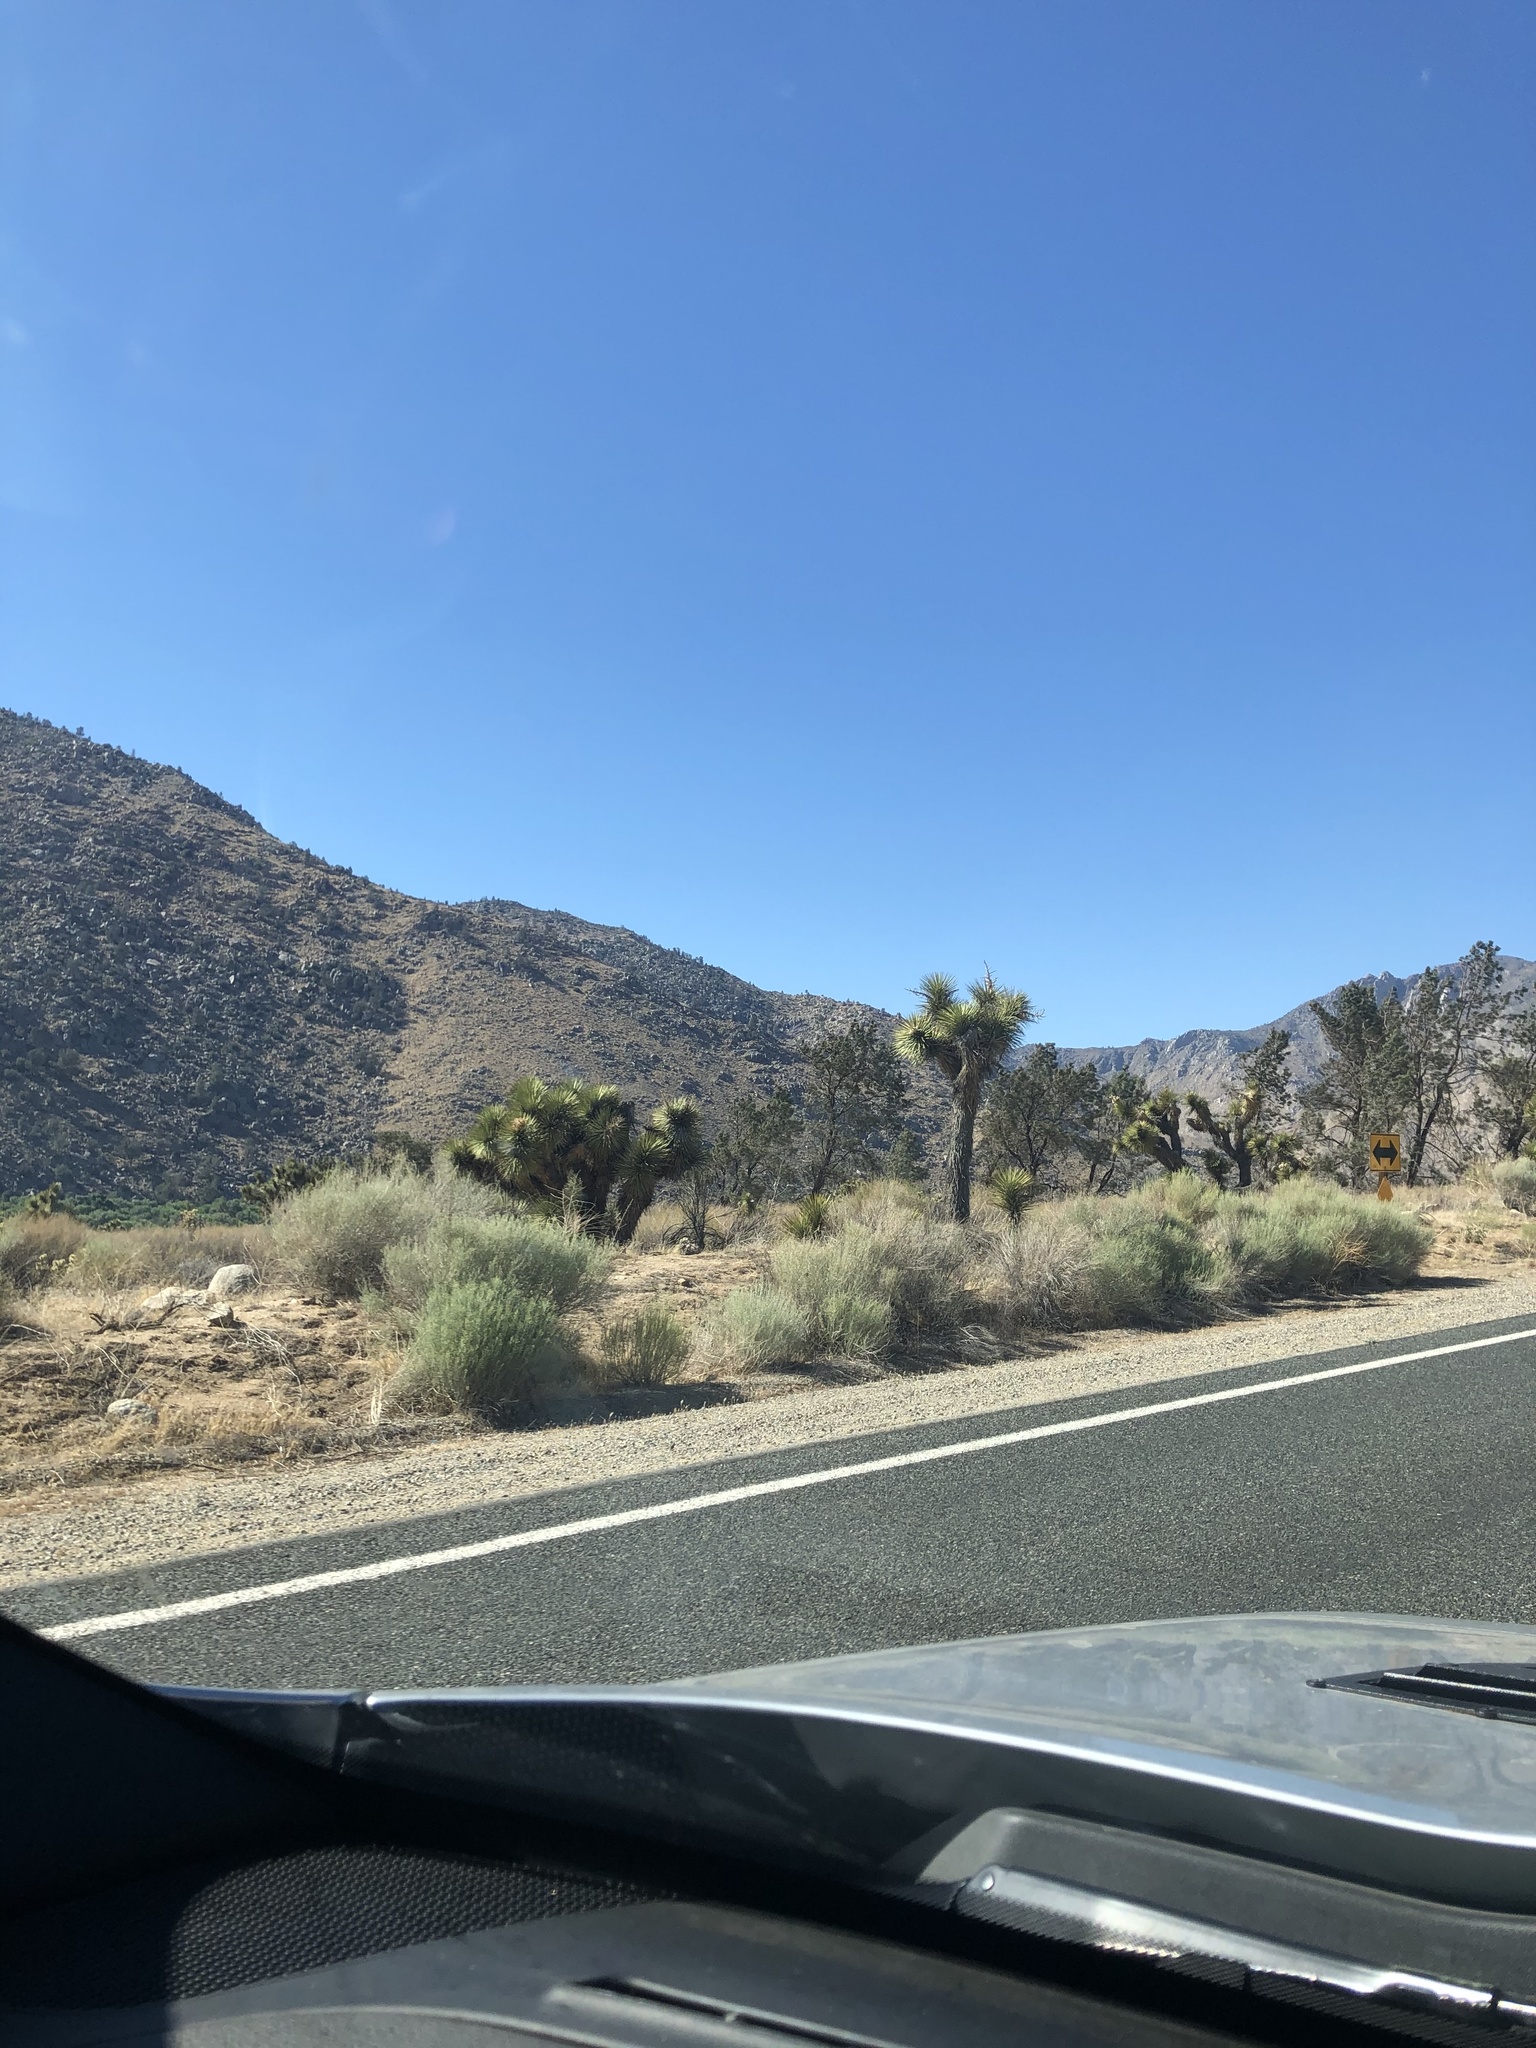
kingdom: Plantae
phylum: Tracheophyta
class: Liliopsida
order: Asparagales
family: Asparagaceae
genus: Yucca
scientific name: Yucca brevifolia
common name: Joshua tree
